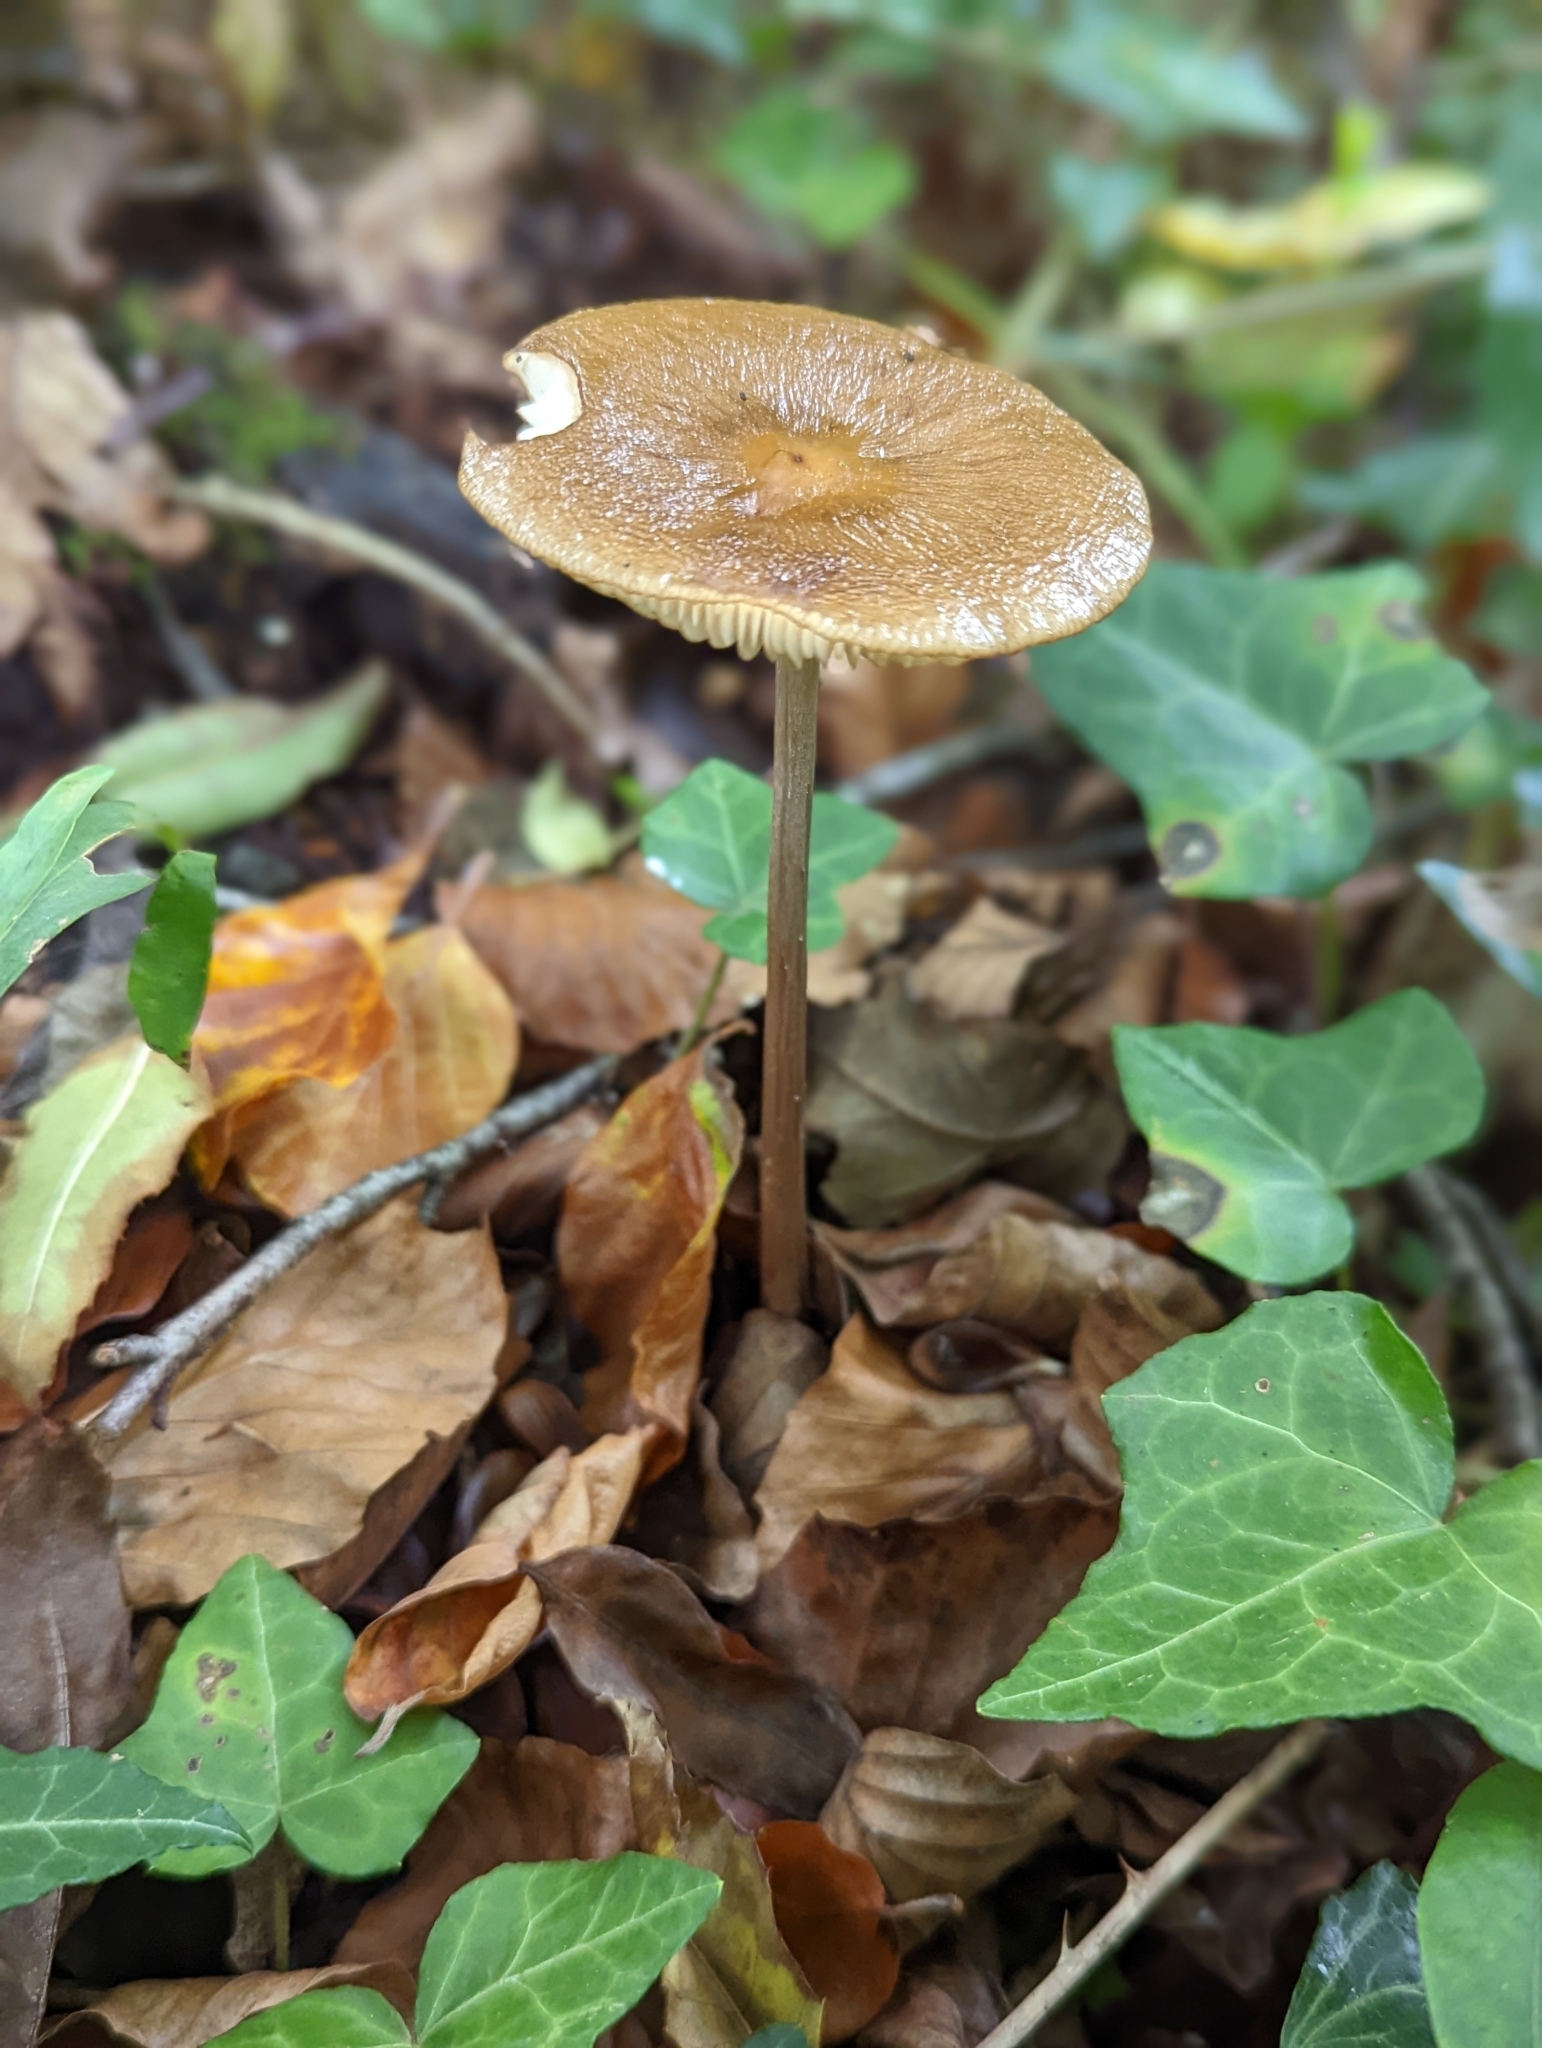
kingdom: Fungi
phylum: Basidiomycota
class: Agaricomycetes
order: Agaricales
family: Physalacriaceae
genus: Hymenopellis
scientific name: Hymenopellis radicata
